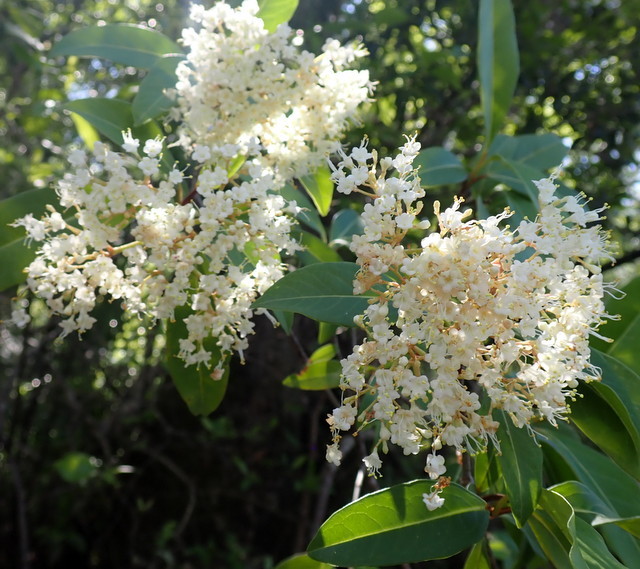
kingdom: Plantae
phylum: Tracheophyta
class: Magnoliopsida
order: Dipsacales
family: Viburnaceae
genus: Viburnum
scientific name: Viburnum nudum
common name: Possum haw
